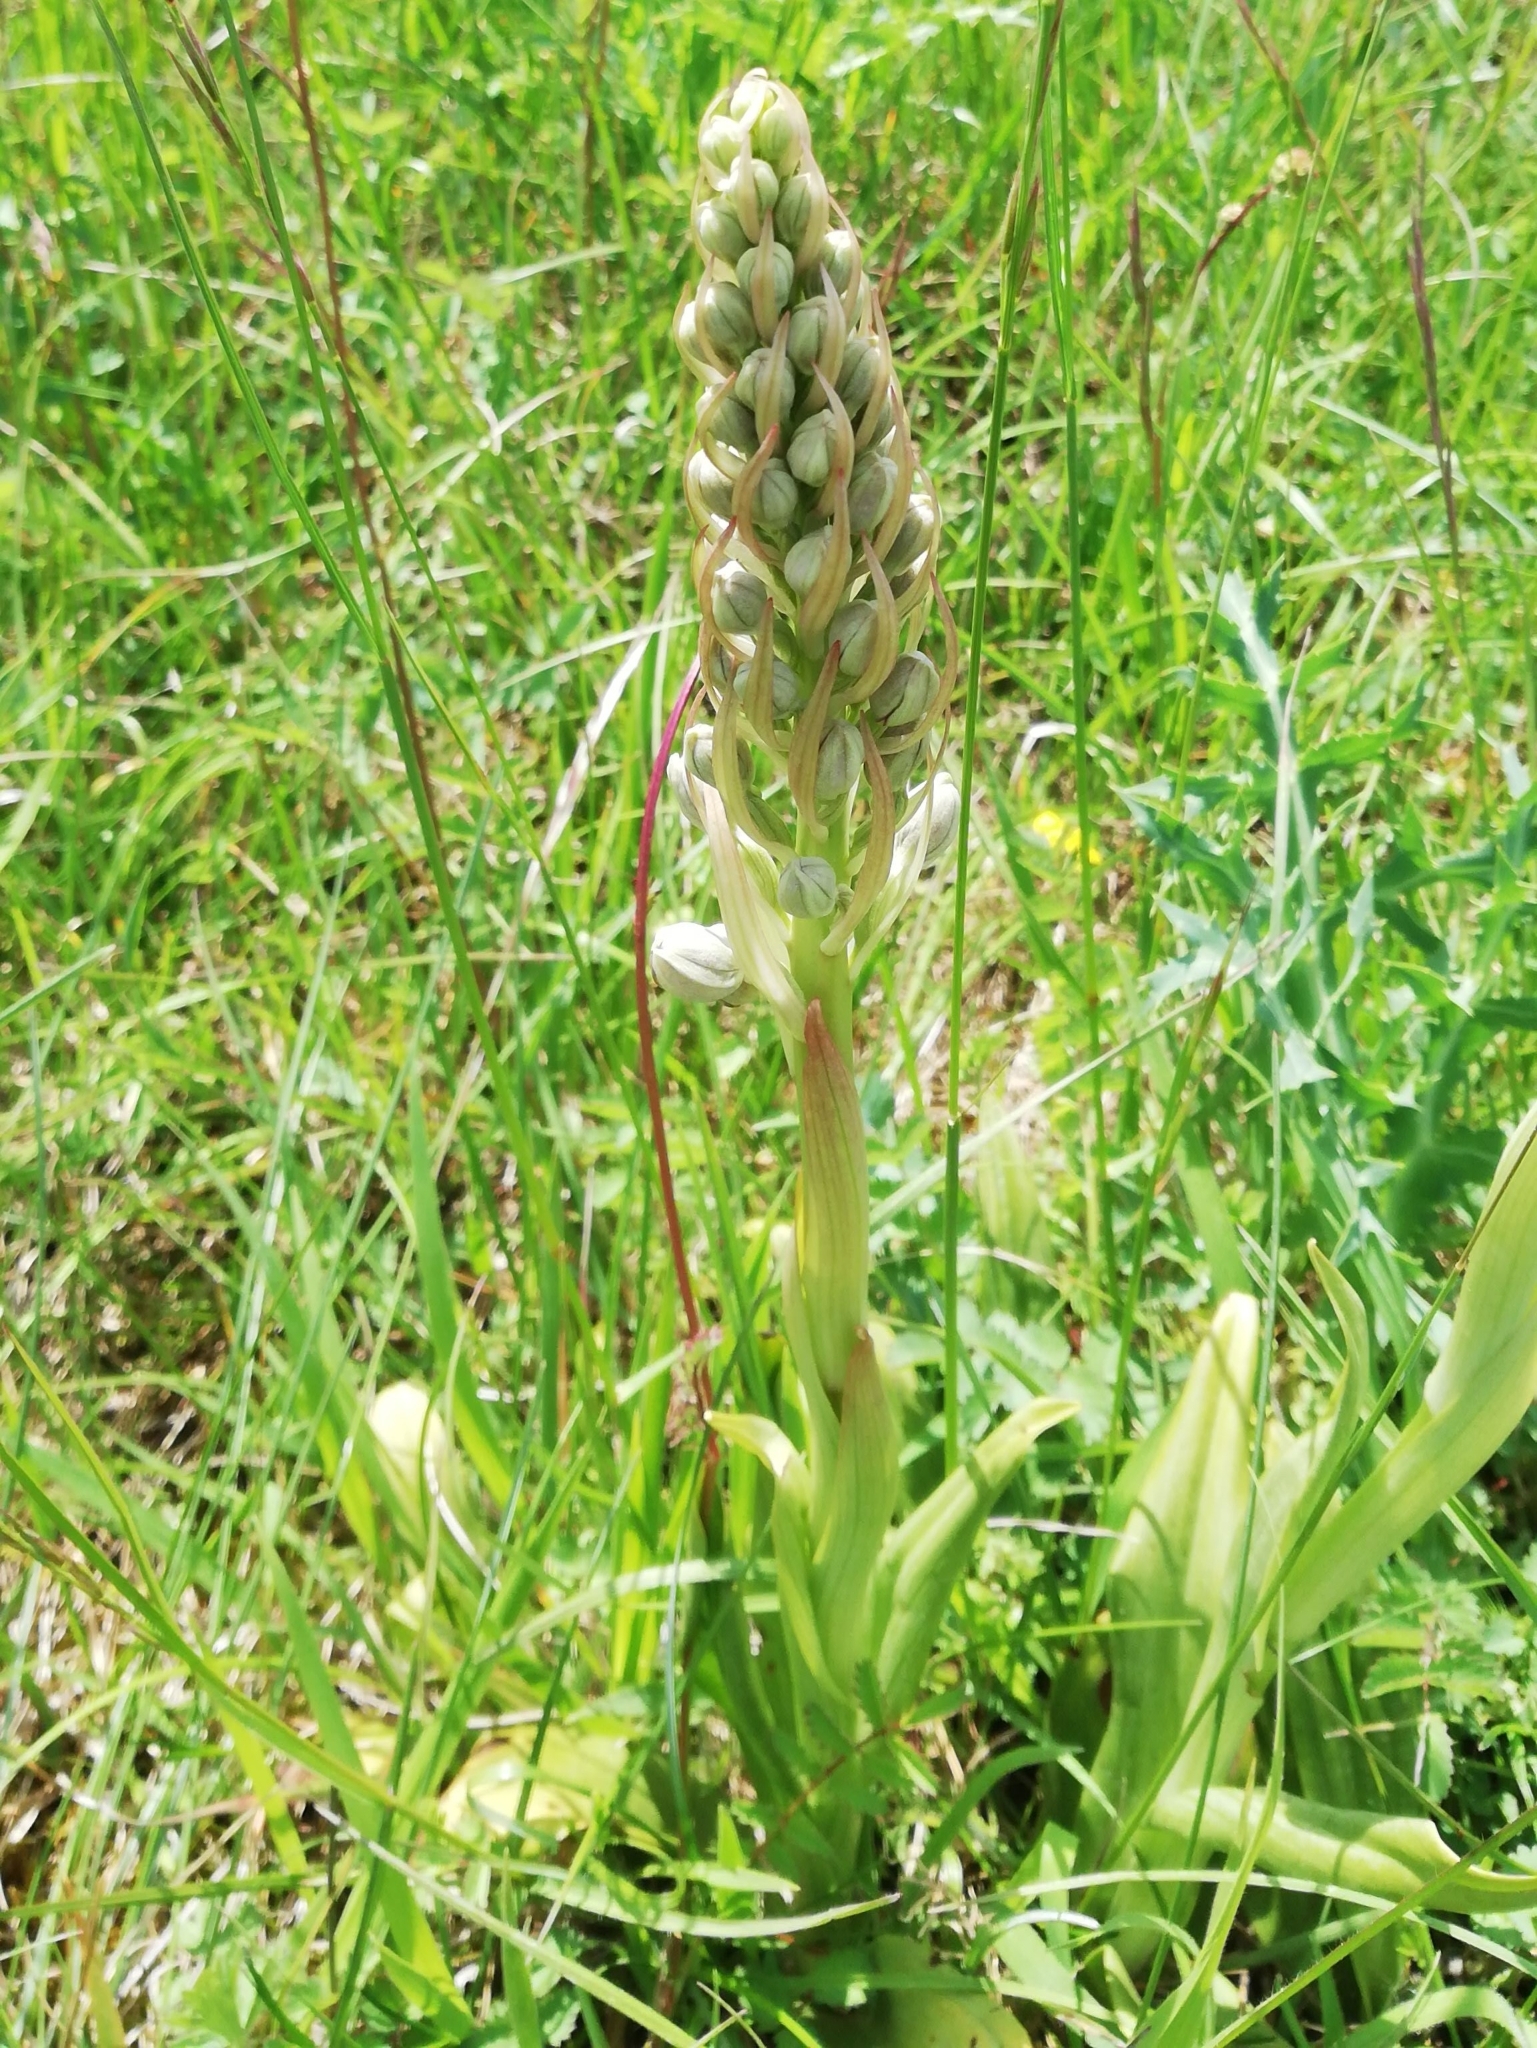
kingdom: Plantae
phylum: Tracheophyta
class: Liliopsida
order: Asparagales
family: Orchidaceae
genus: Himantoglossum
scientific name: Himantoglossum hircinum
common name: Lizard orchid
